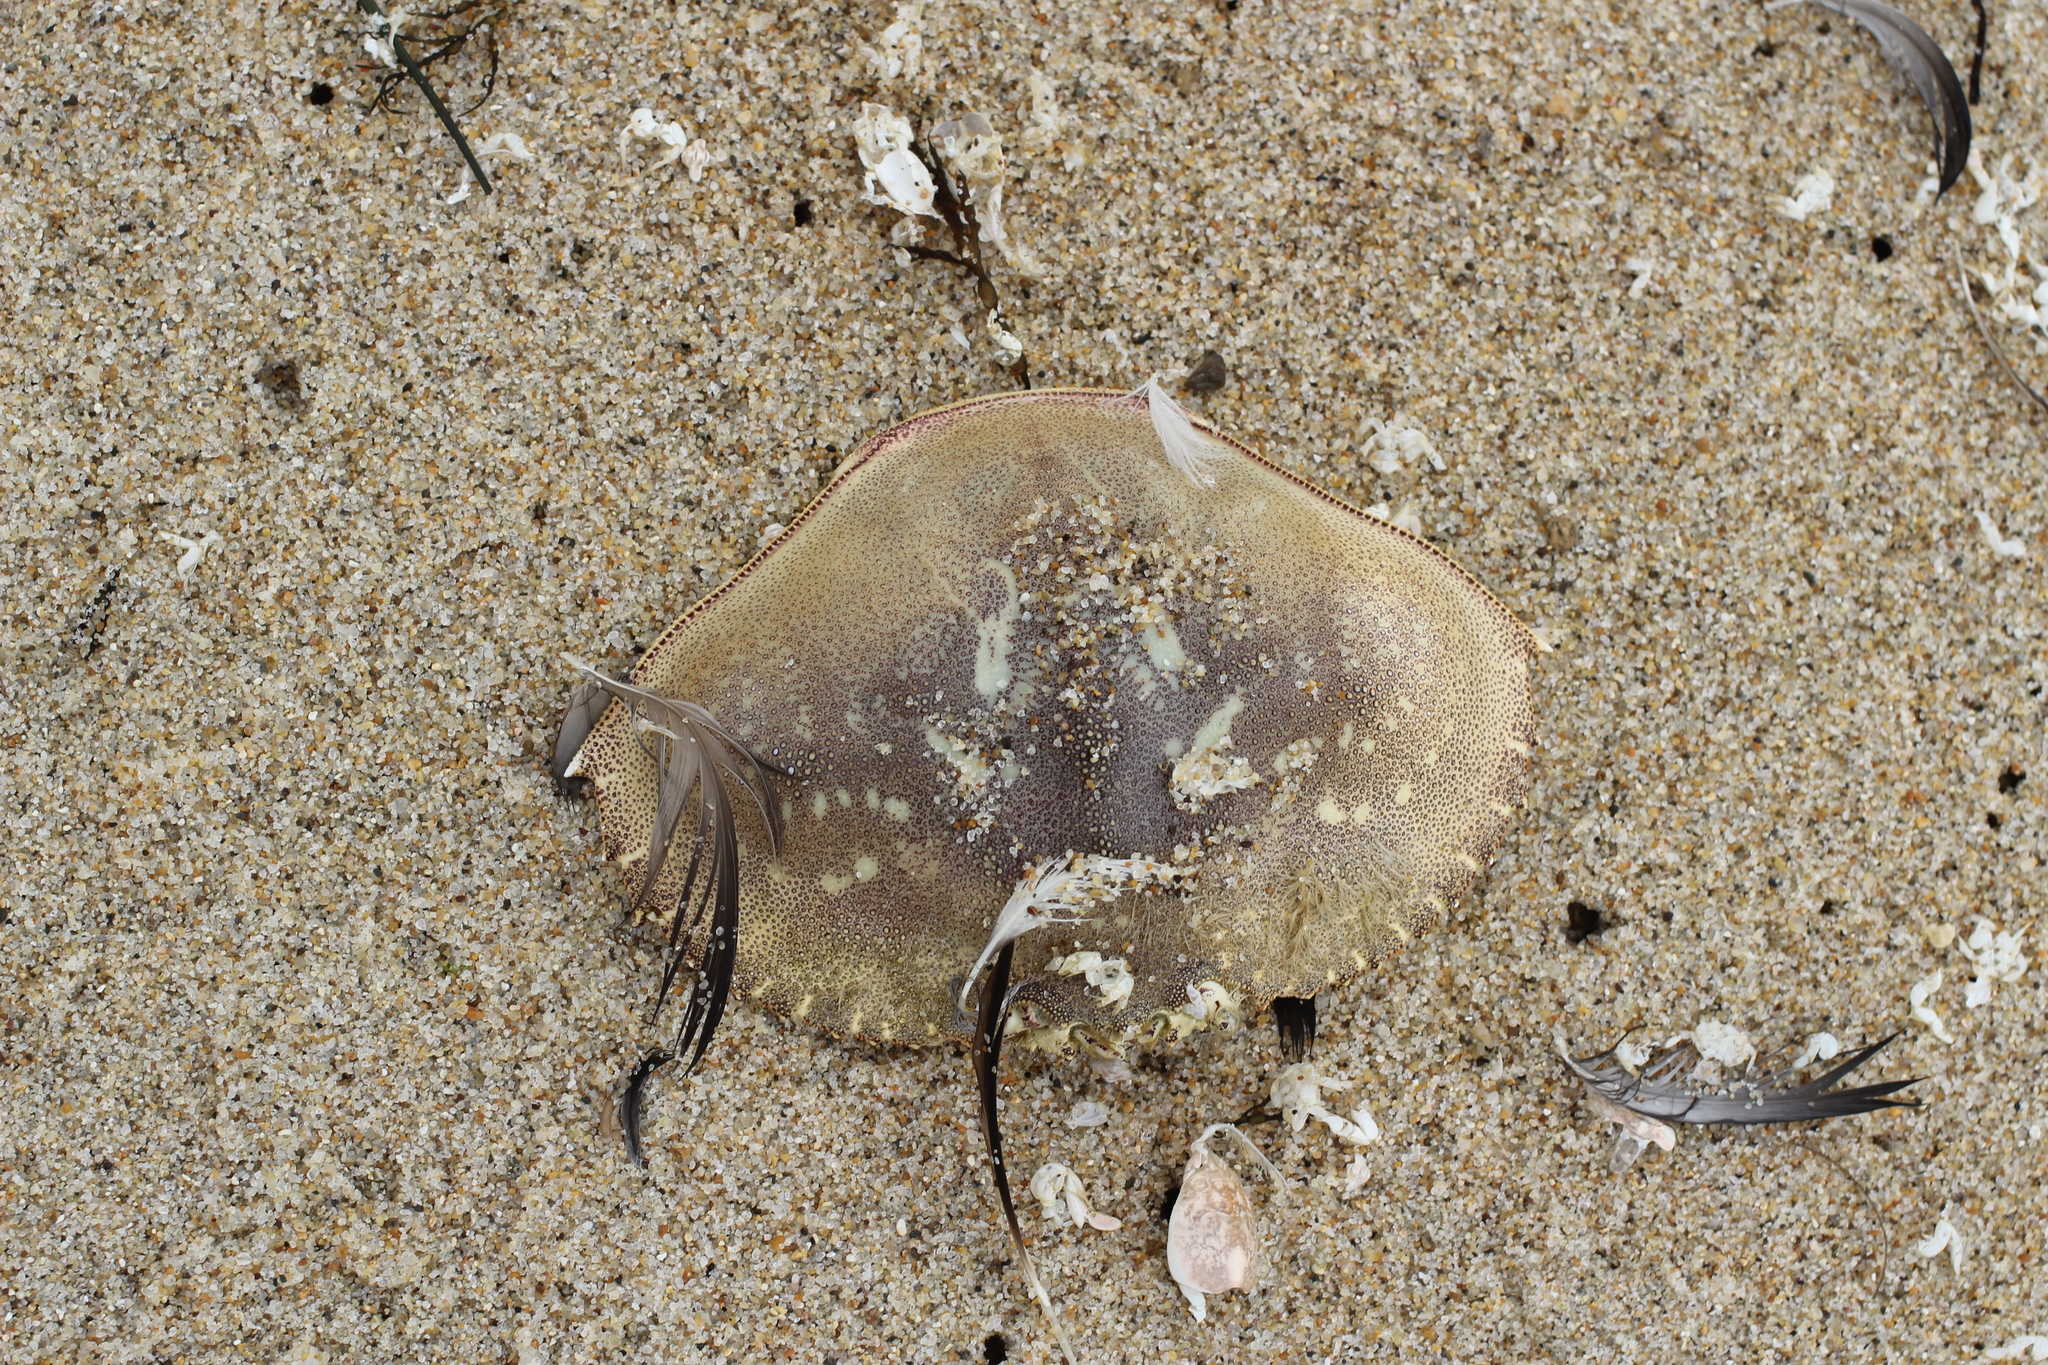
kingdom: Animalia
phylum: Arthropoda
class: Malacostraca
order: Decapoda
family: Cancridae
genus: Metacarcinus
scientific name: Metacarcinus magister
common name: Californian crab
